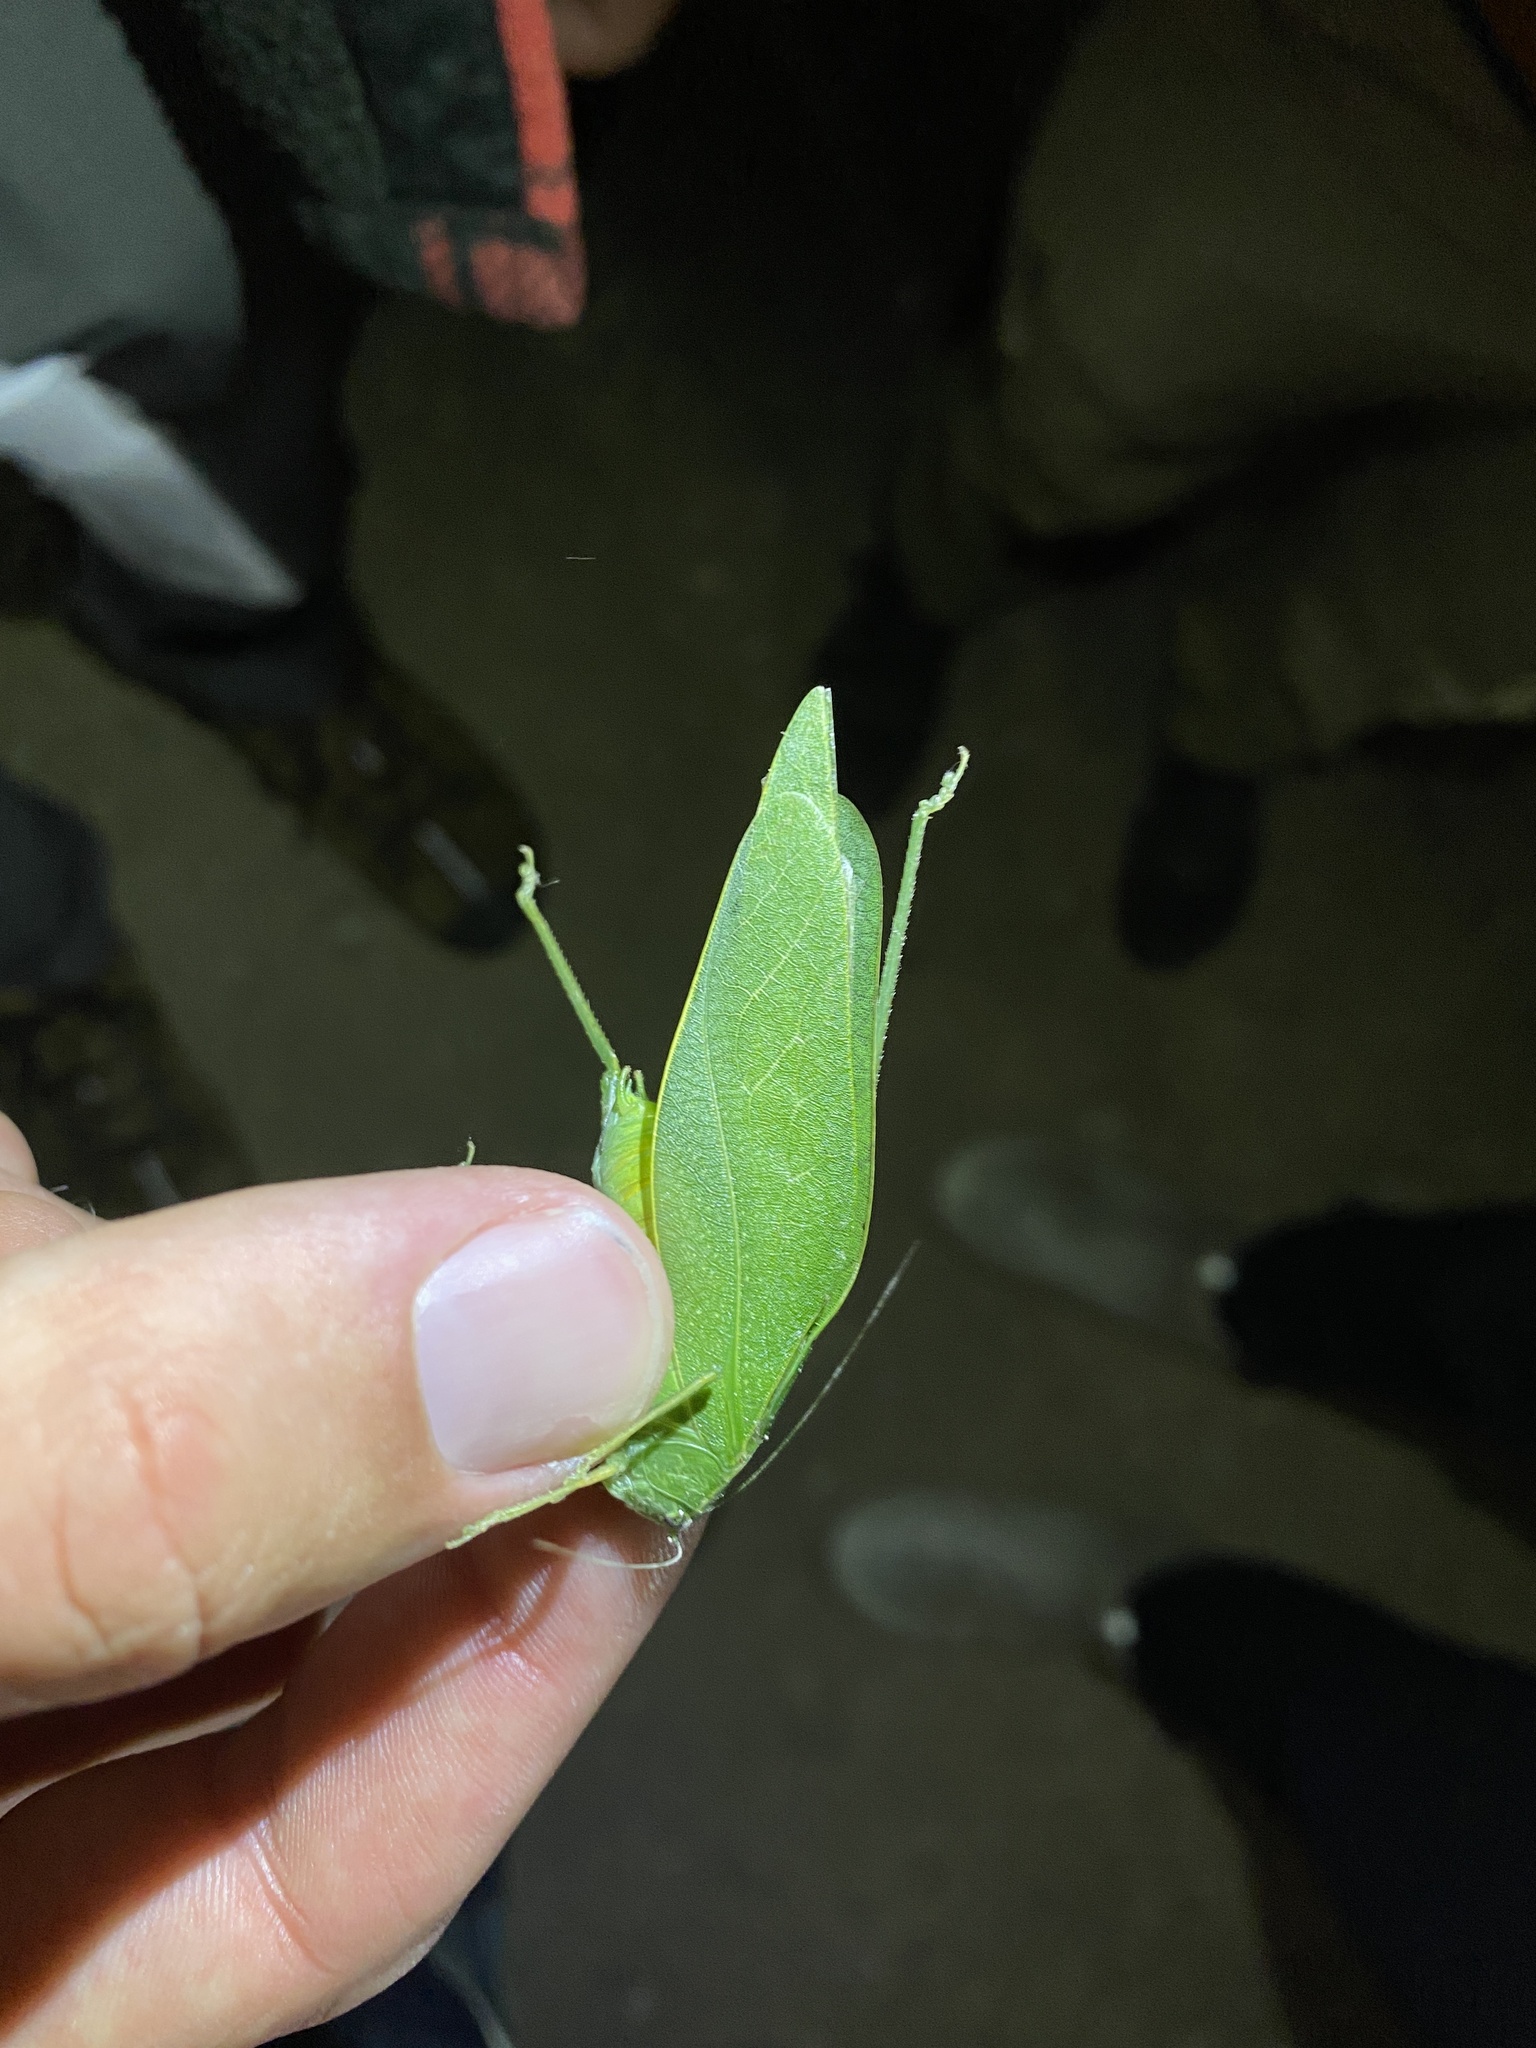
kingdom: Animalia
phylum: Arthropoda
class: Insecta
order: Orthoptera
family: Tettigoniidae
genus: Microcentrum
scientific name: Microcentrum rhombifolium
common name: Broad-winged katydid
